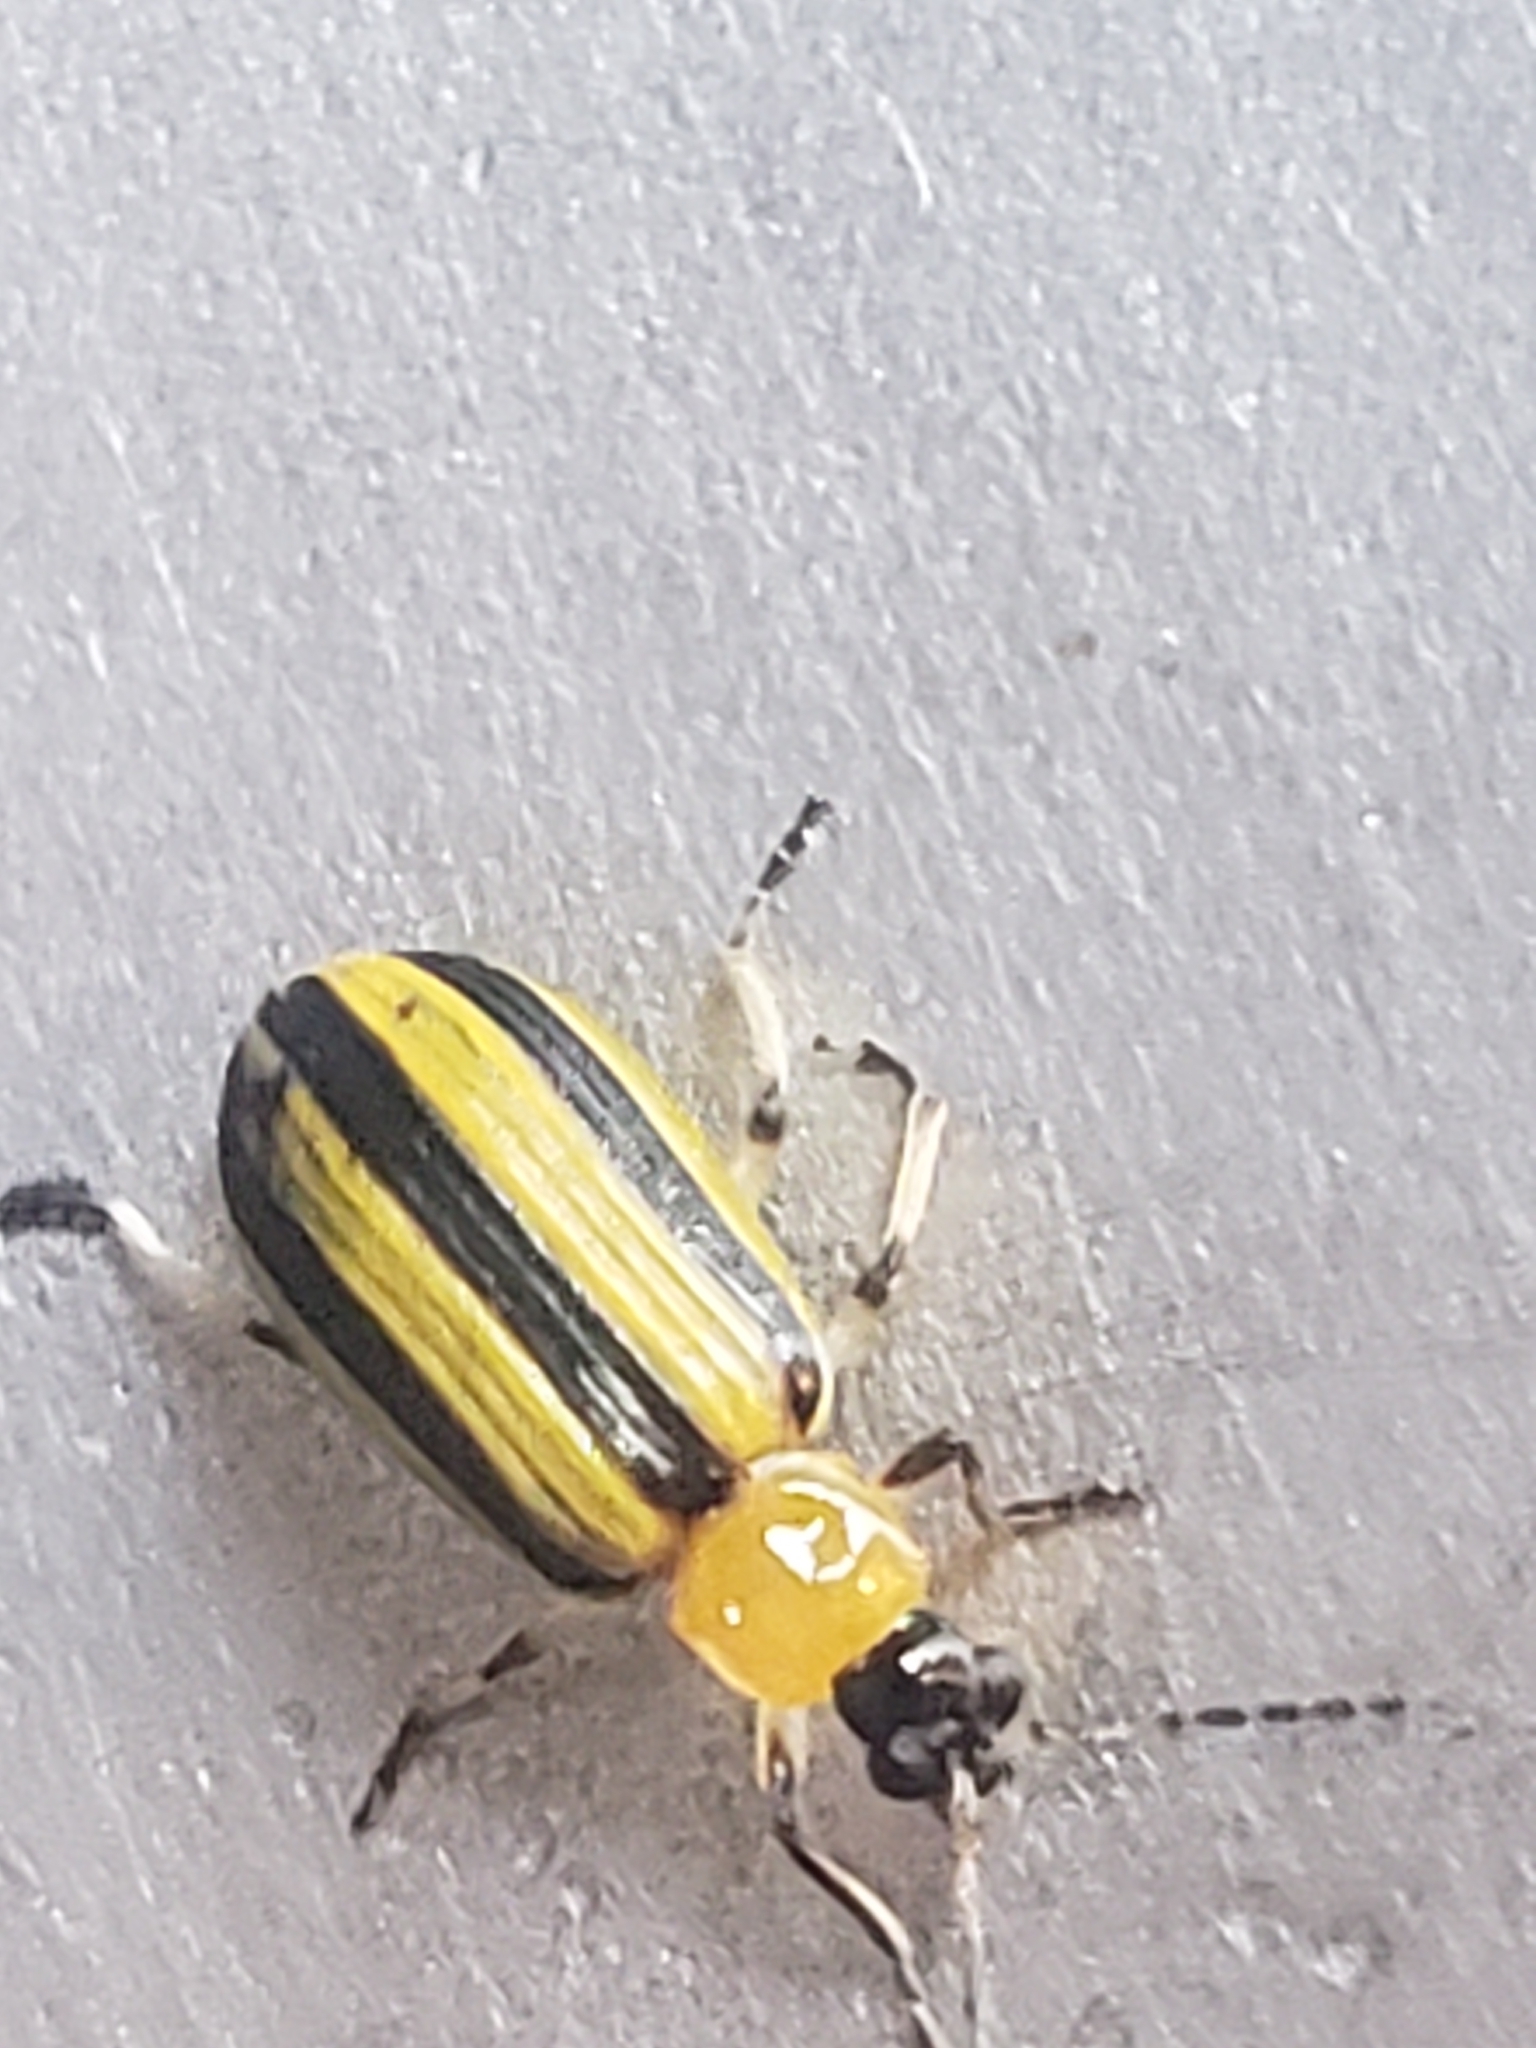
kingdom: Animalia
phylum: Arthropoda
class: Insecta
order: Coleoptera
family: Chrysomelidae
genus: Acalymma
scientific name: Acalymma vittatum
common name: Striped cucumber beetle
